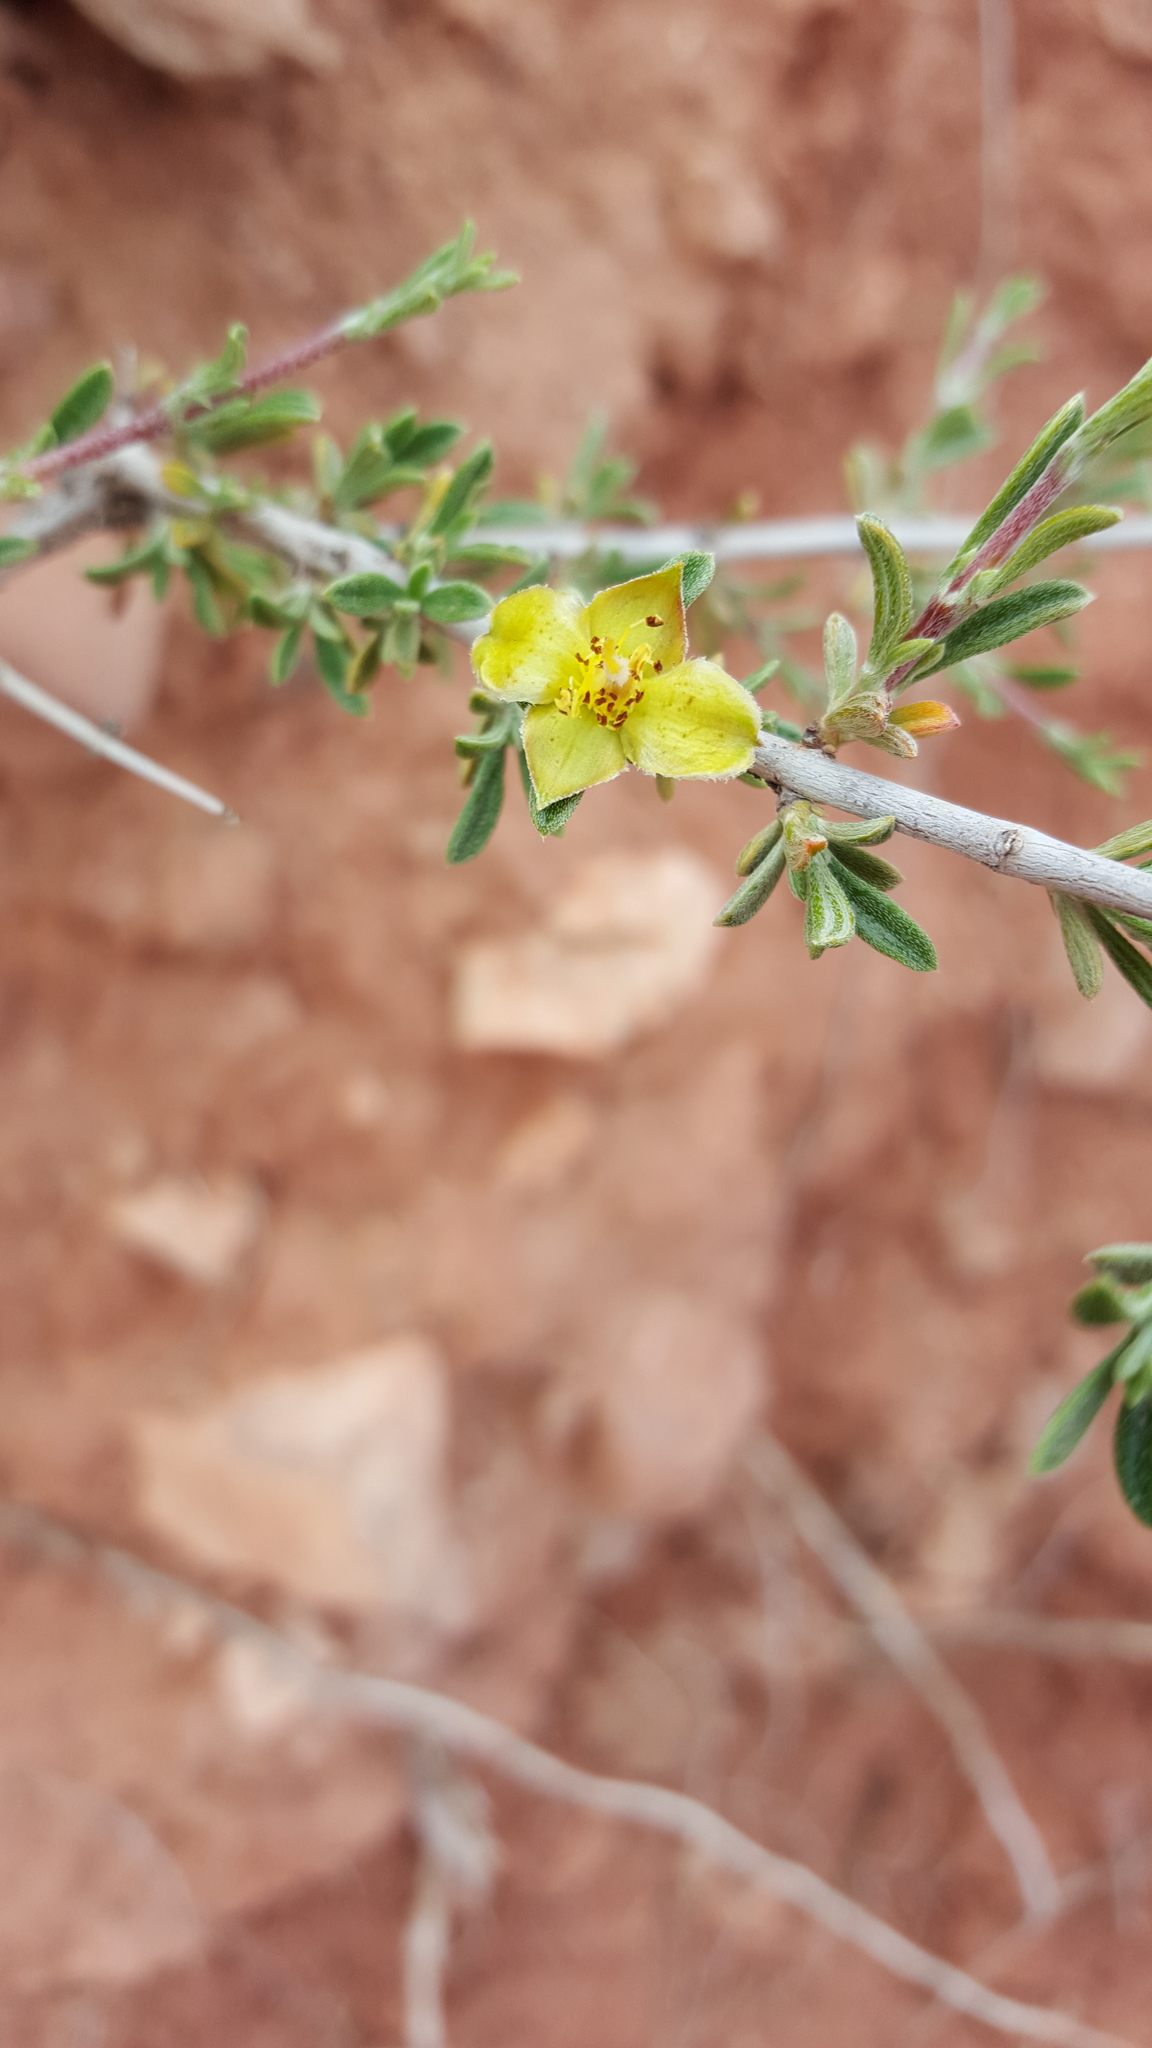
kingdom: Plantae
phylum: Tracheophyta
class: Magnoliopsida
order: Rosales
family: Rosaceae
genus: Coleogyne
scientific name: Coleogyne ramosissima
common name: Blackbrush
